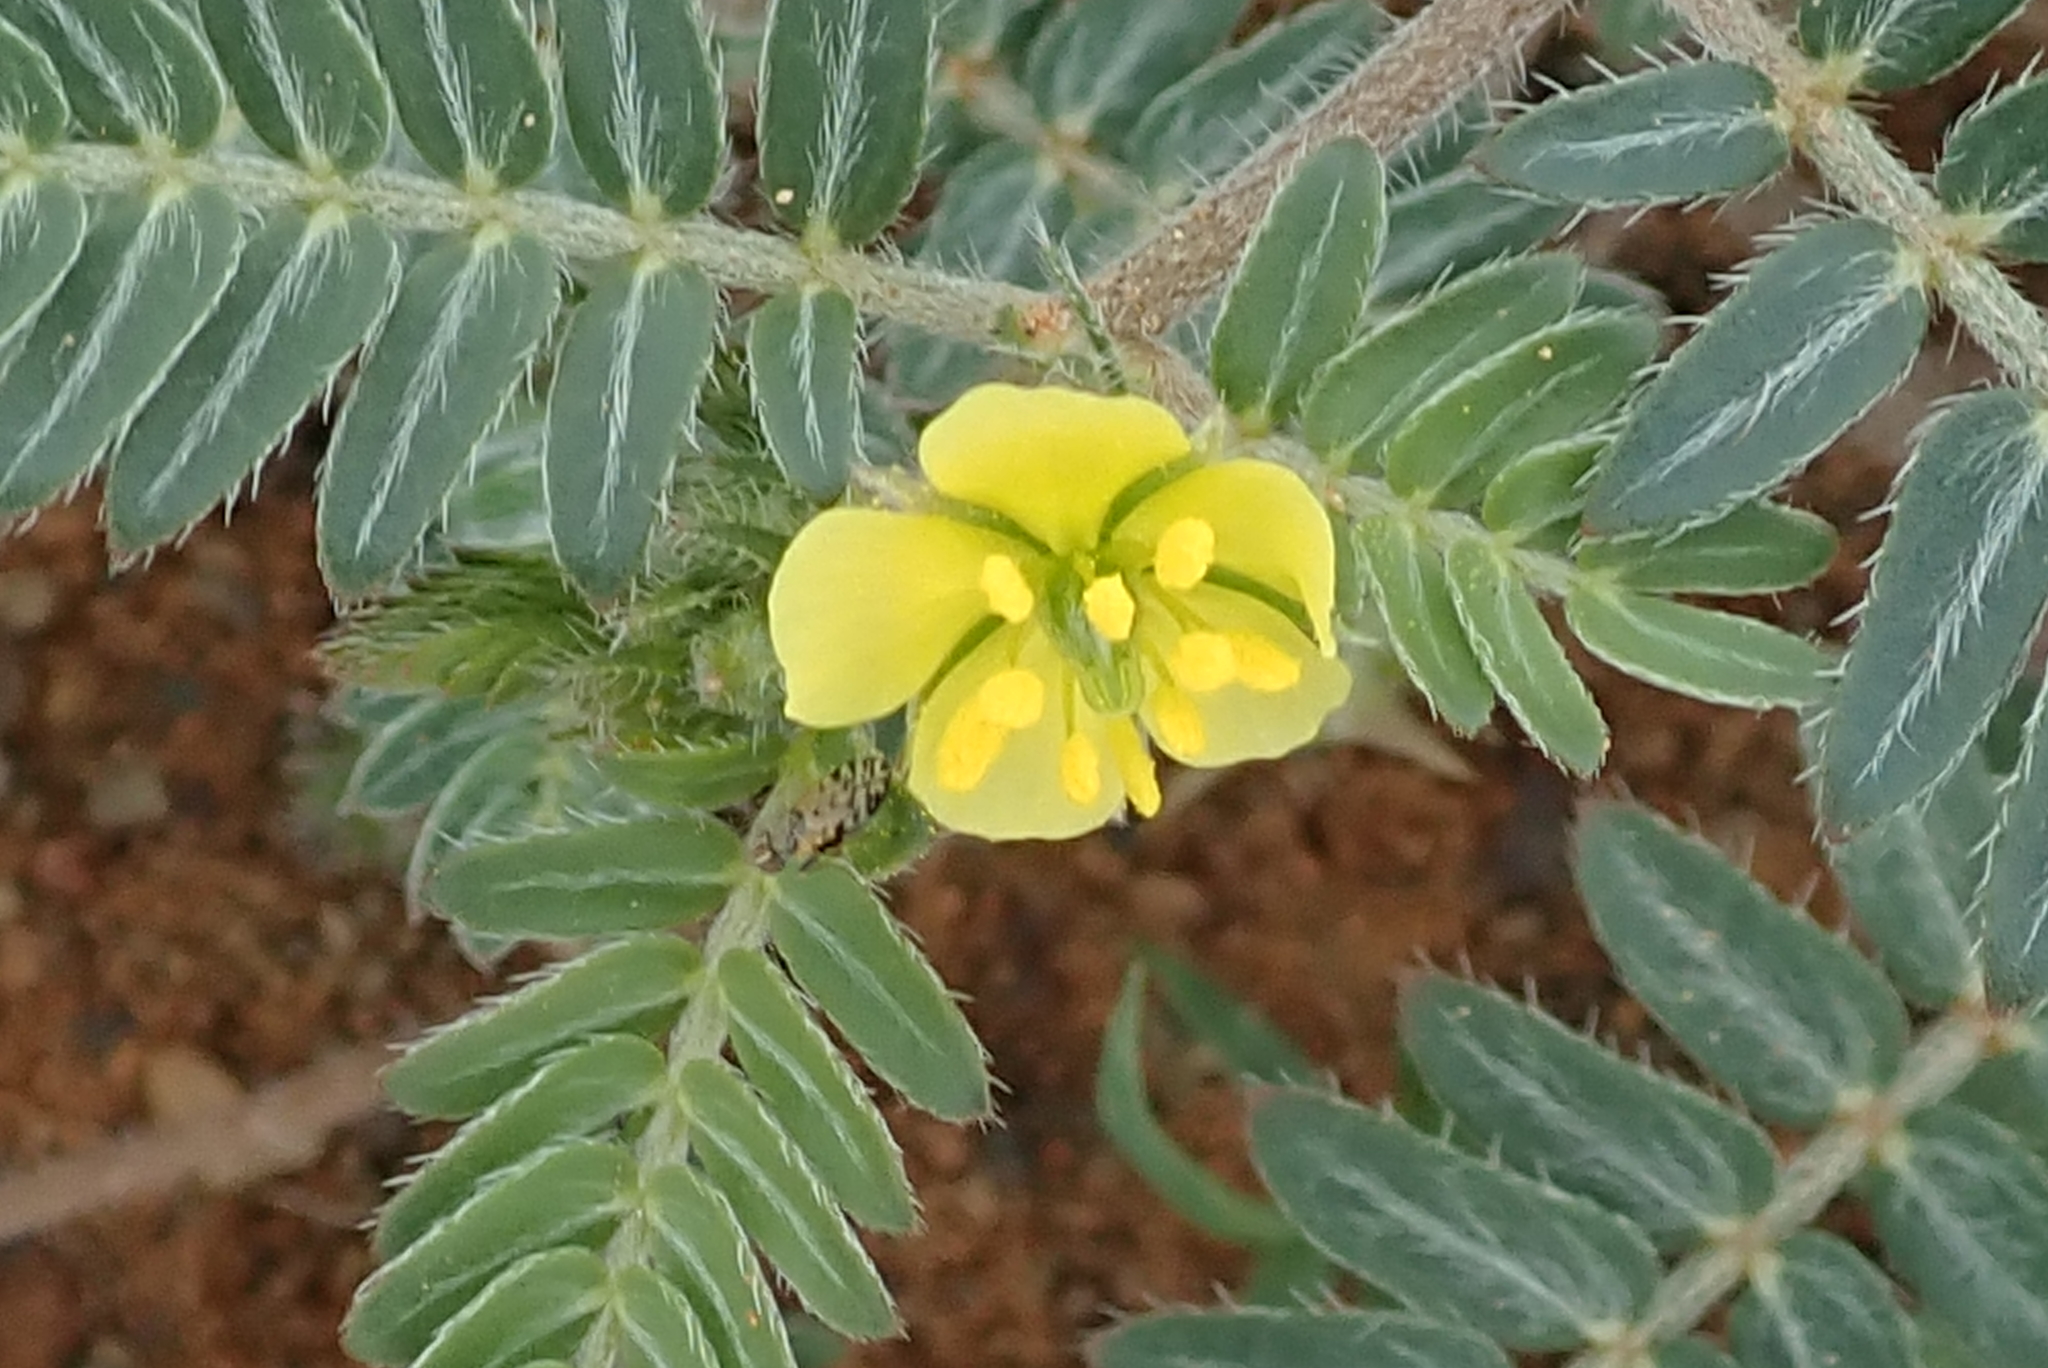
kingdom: Plantae
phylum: Tracheophyta
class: Magnoliopsida
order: Zygophyllales
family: Zygophyllaceae
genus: Tribulus
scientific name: Tribulus terrestris
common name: Puncturevine
